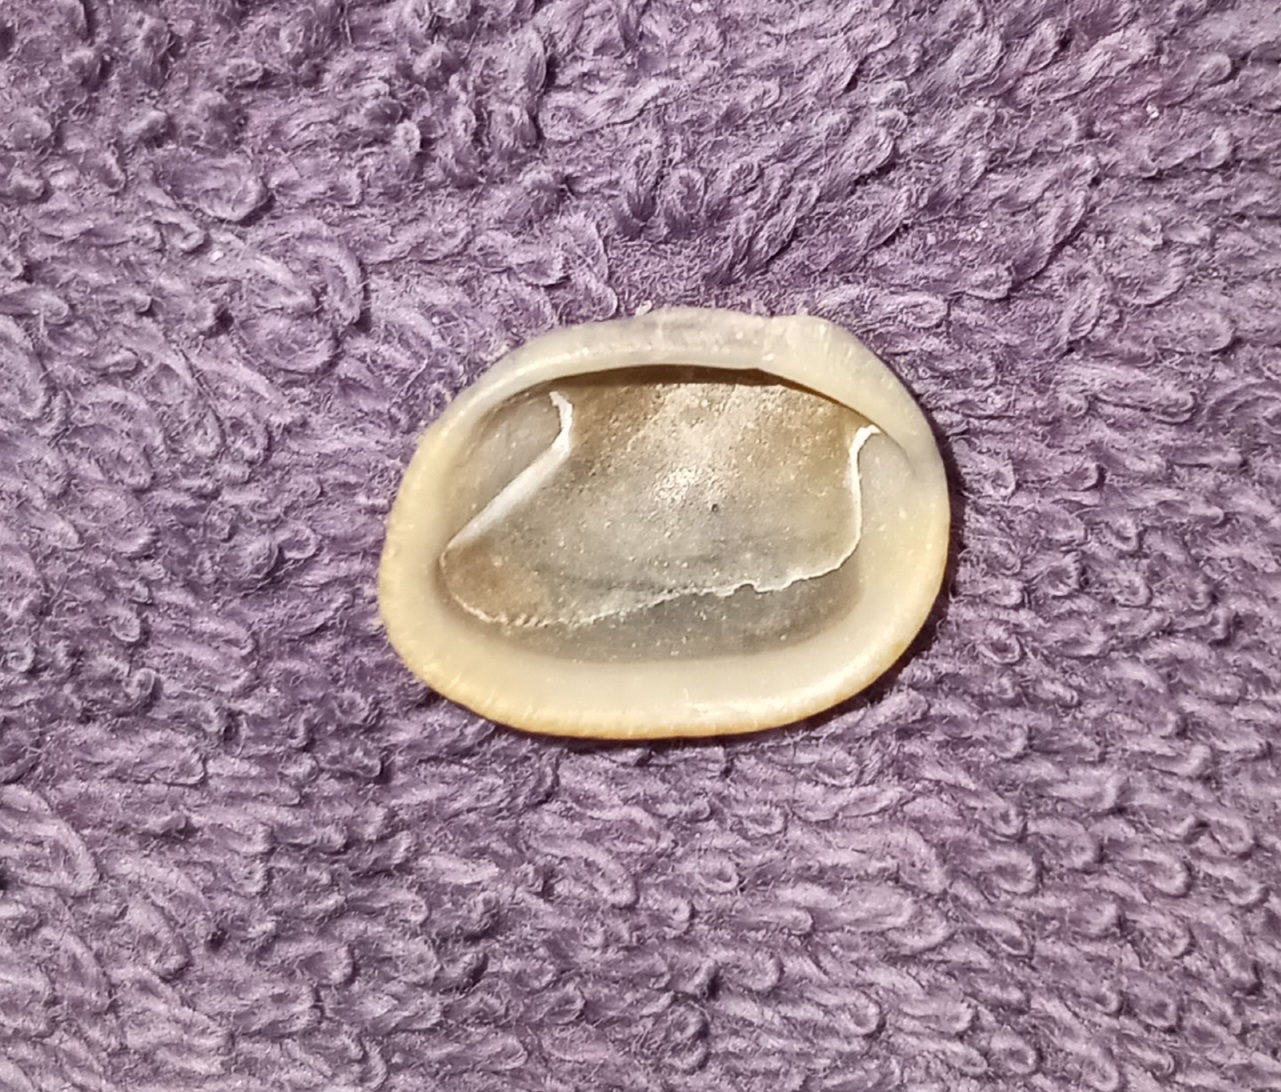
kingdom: Animalia
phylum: Mollusca
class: Bivalvia
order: Arcida
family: Noetiidae
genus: Noetia
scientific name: Noetia ponderosa
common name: Ponderous ark
